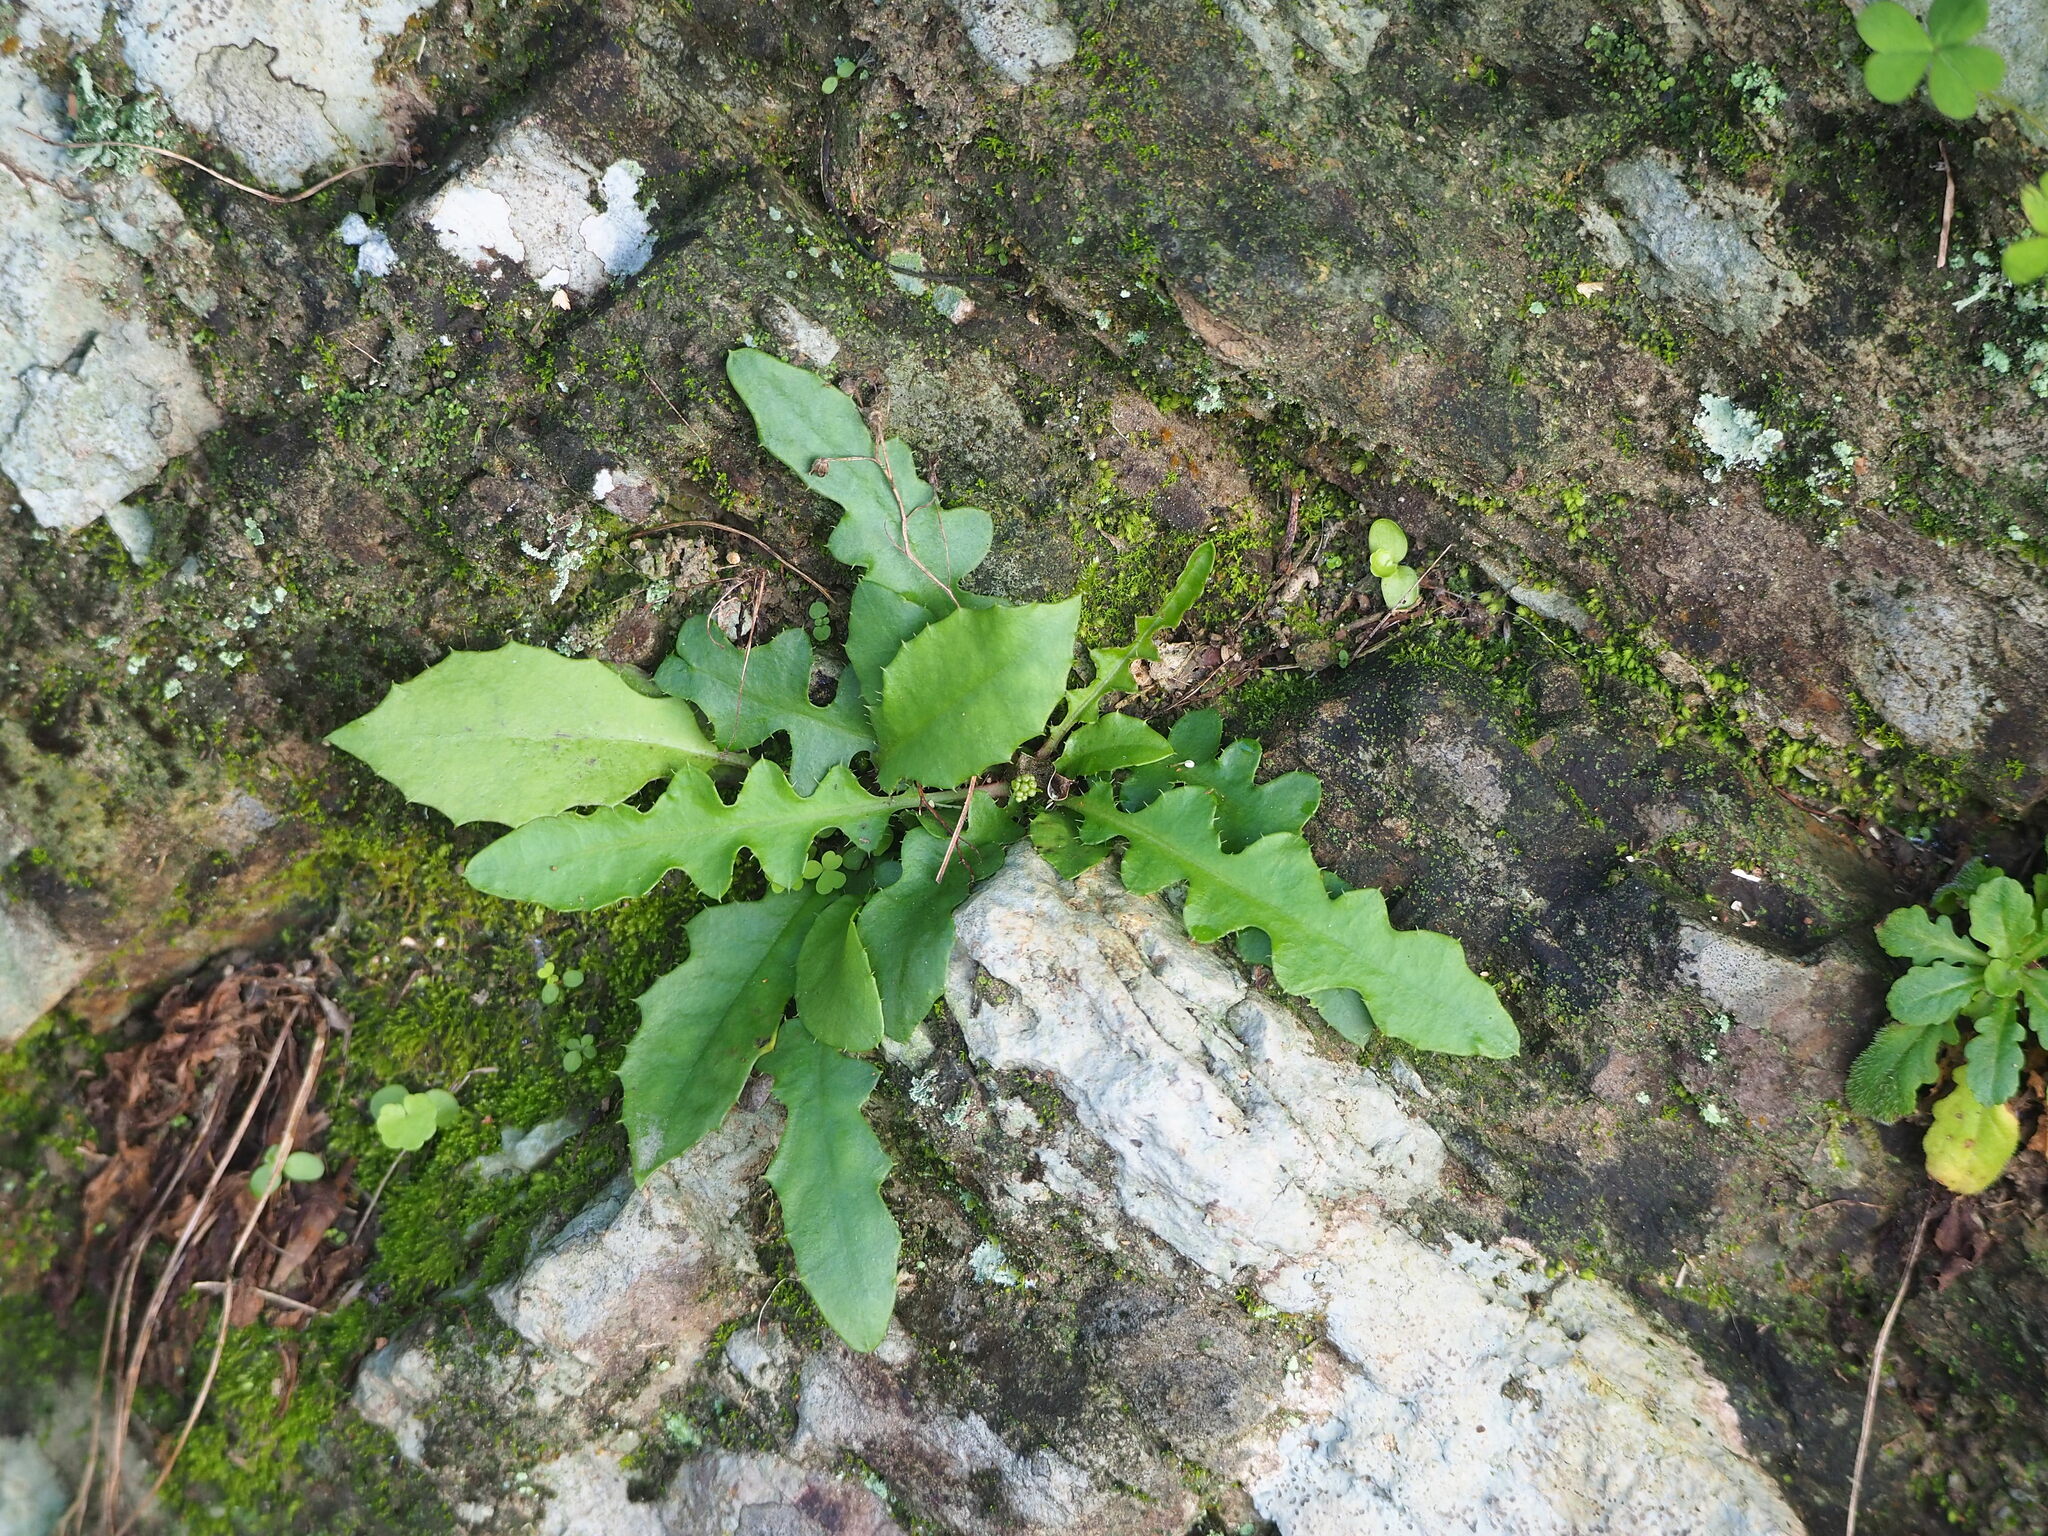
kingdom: Plantae
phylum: Tracheophyta
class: Magnoliopsida
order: Asterales
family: Asteraceae
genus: Ixeridium
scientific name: Ixeridium laevigatum
